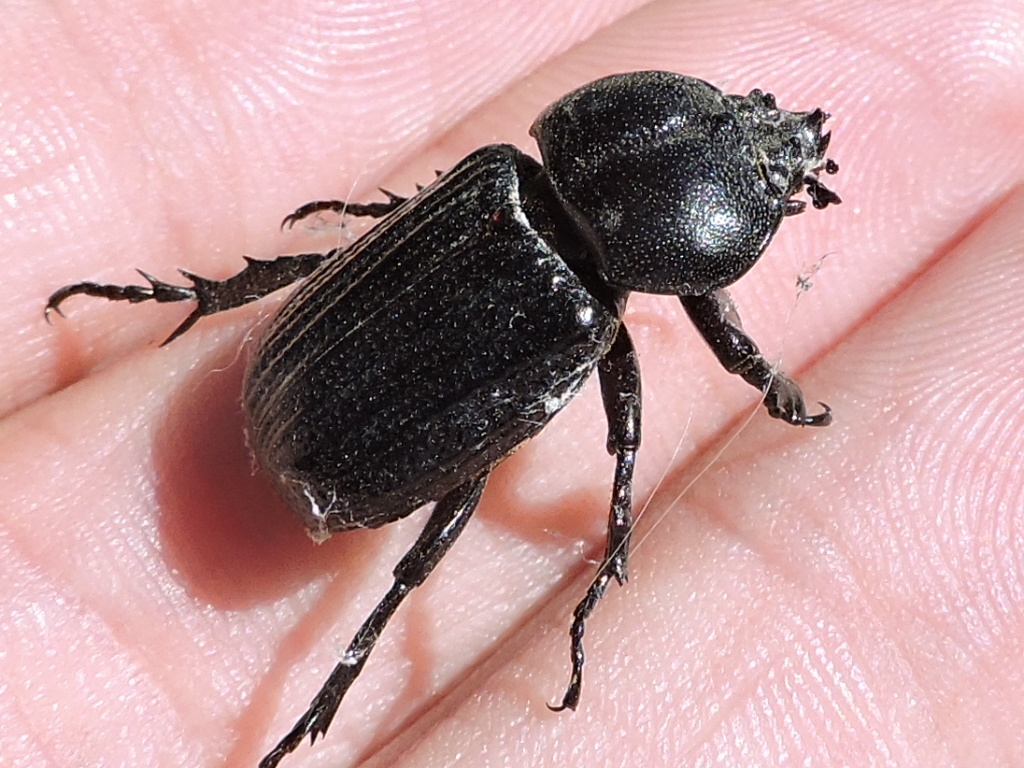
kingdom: Animalia
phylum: Arthropoda
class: Insecta
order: Coleoptera
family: Scarabaeidae
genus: Phileurus
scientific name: Phileurus valgus
